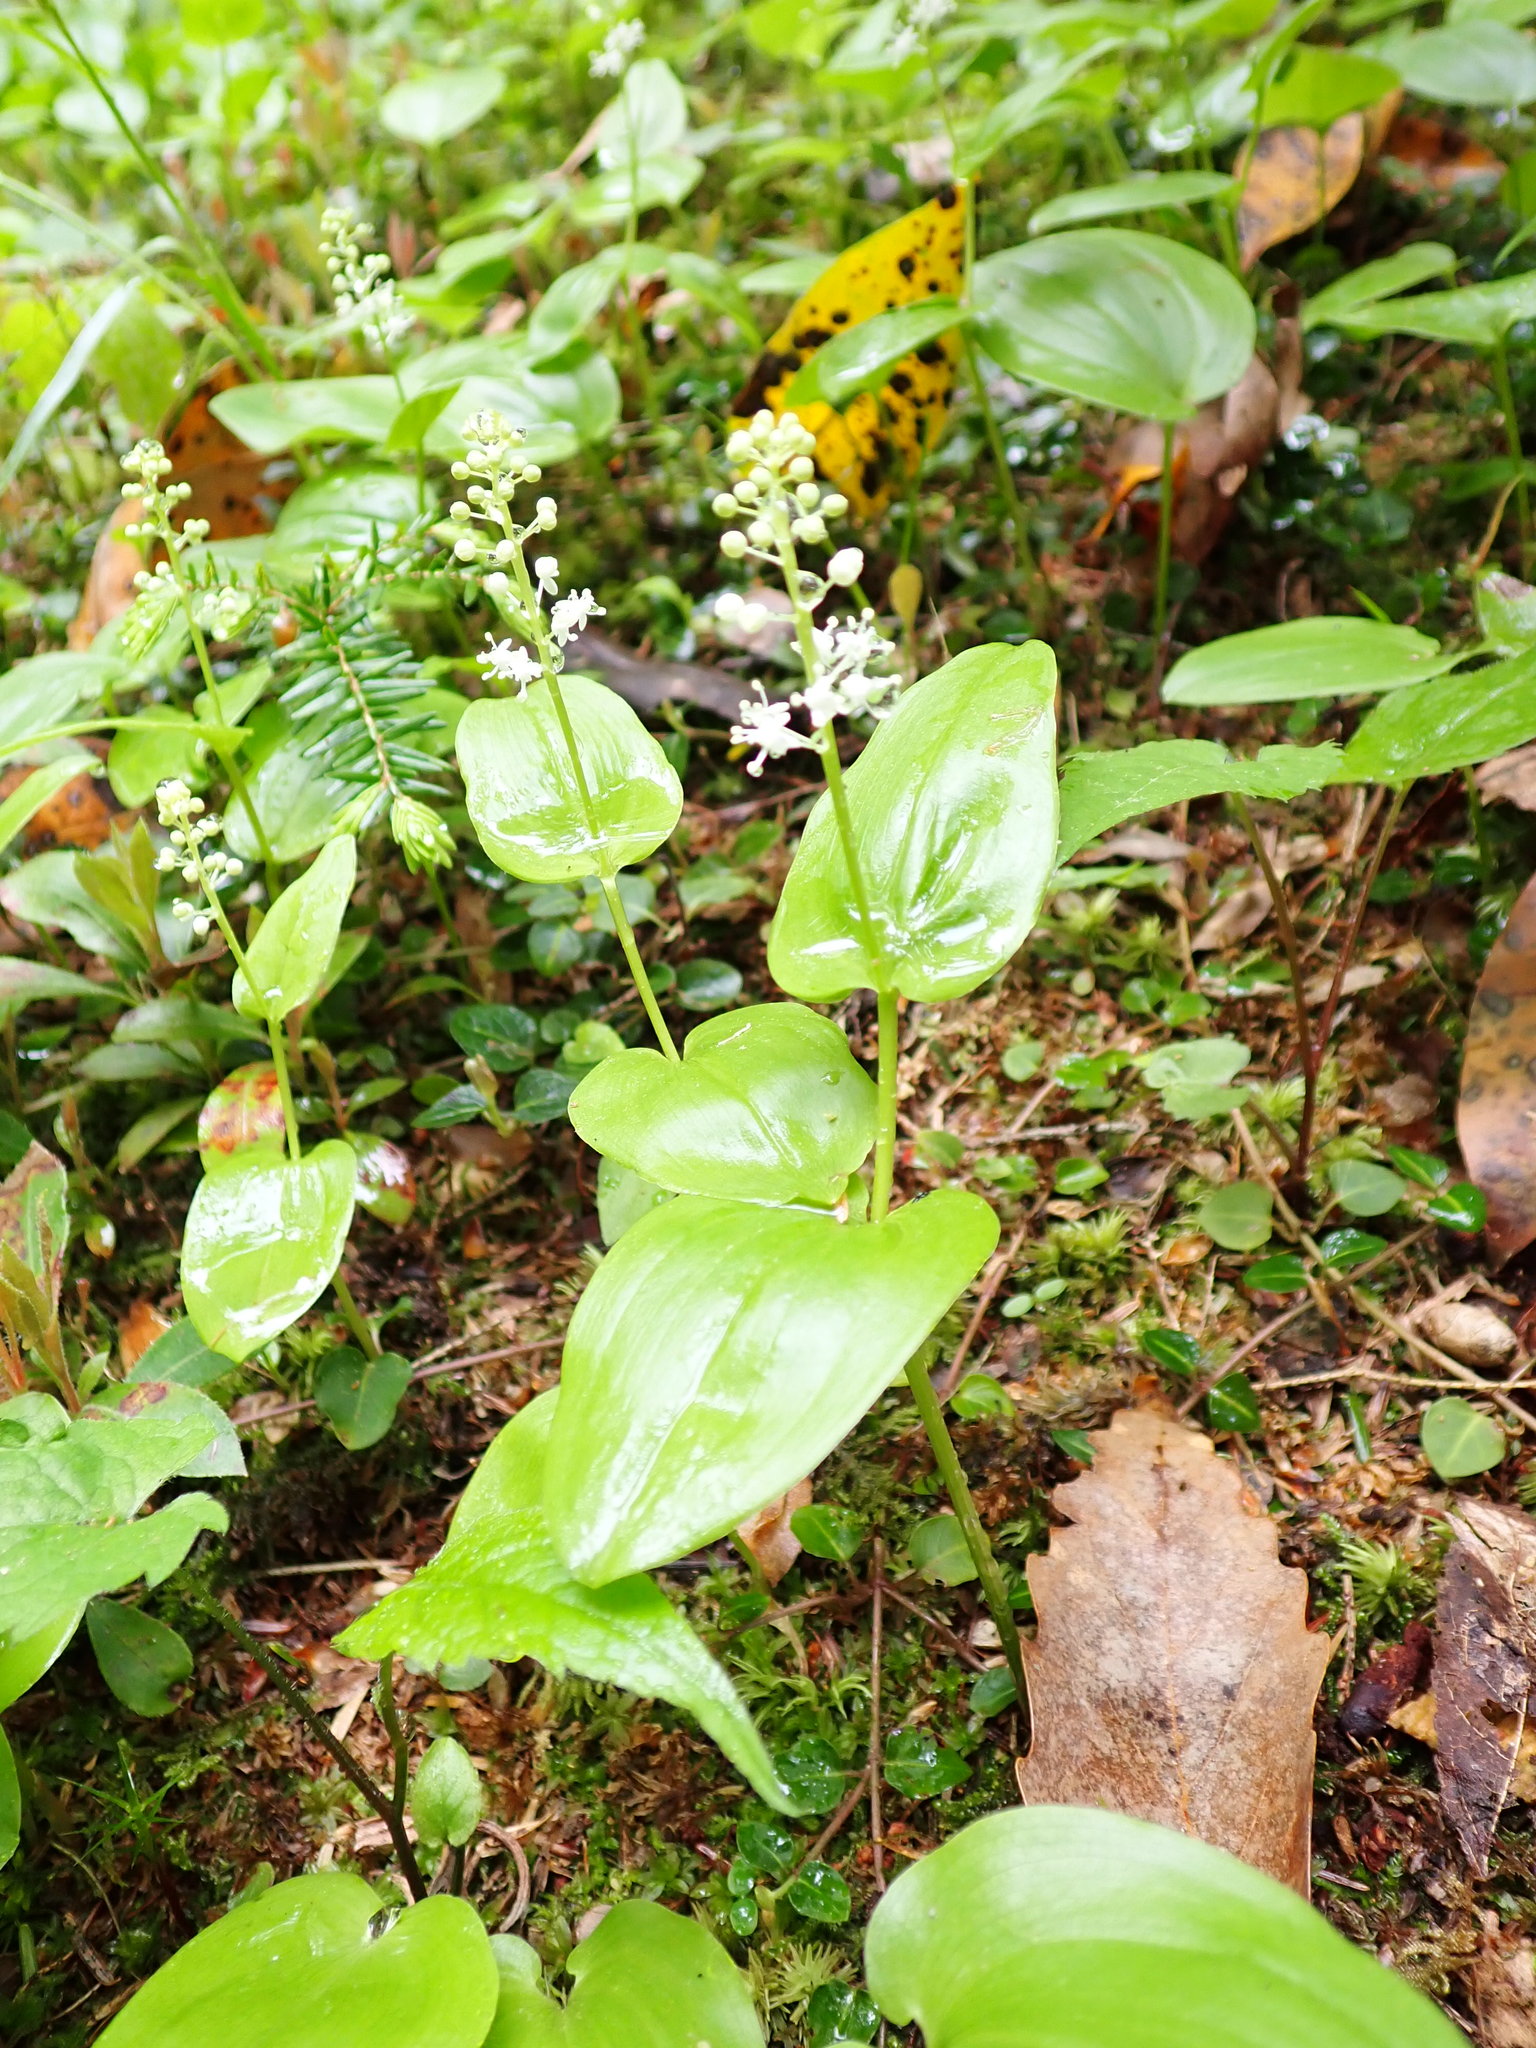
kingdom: Plantae
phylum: Tracheophyta
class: Liliopsida
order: Asparagales
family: Asparagaceae
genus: Maianthemum
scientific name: Maianthemum canadense
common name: False lily-of-the-valley
